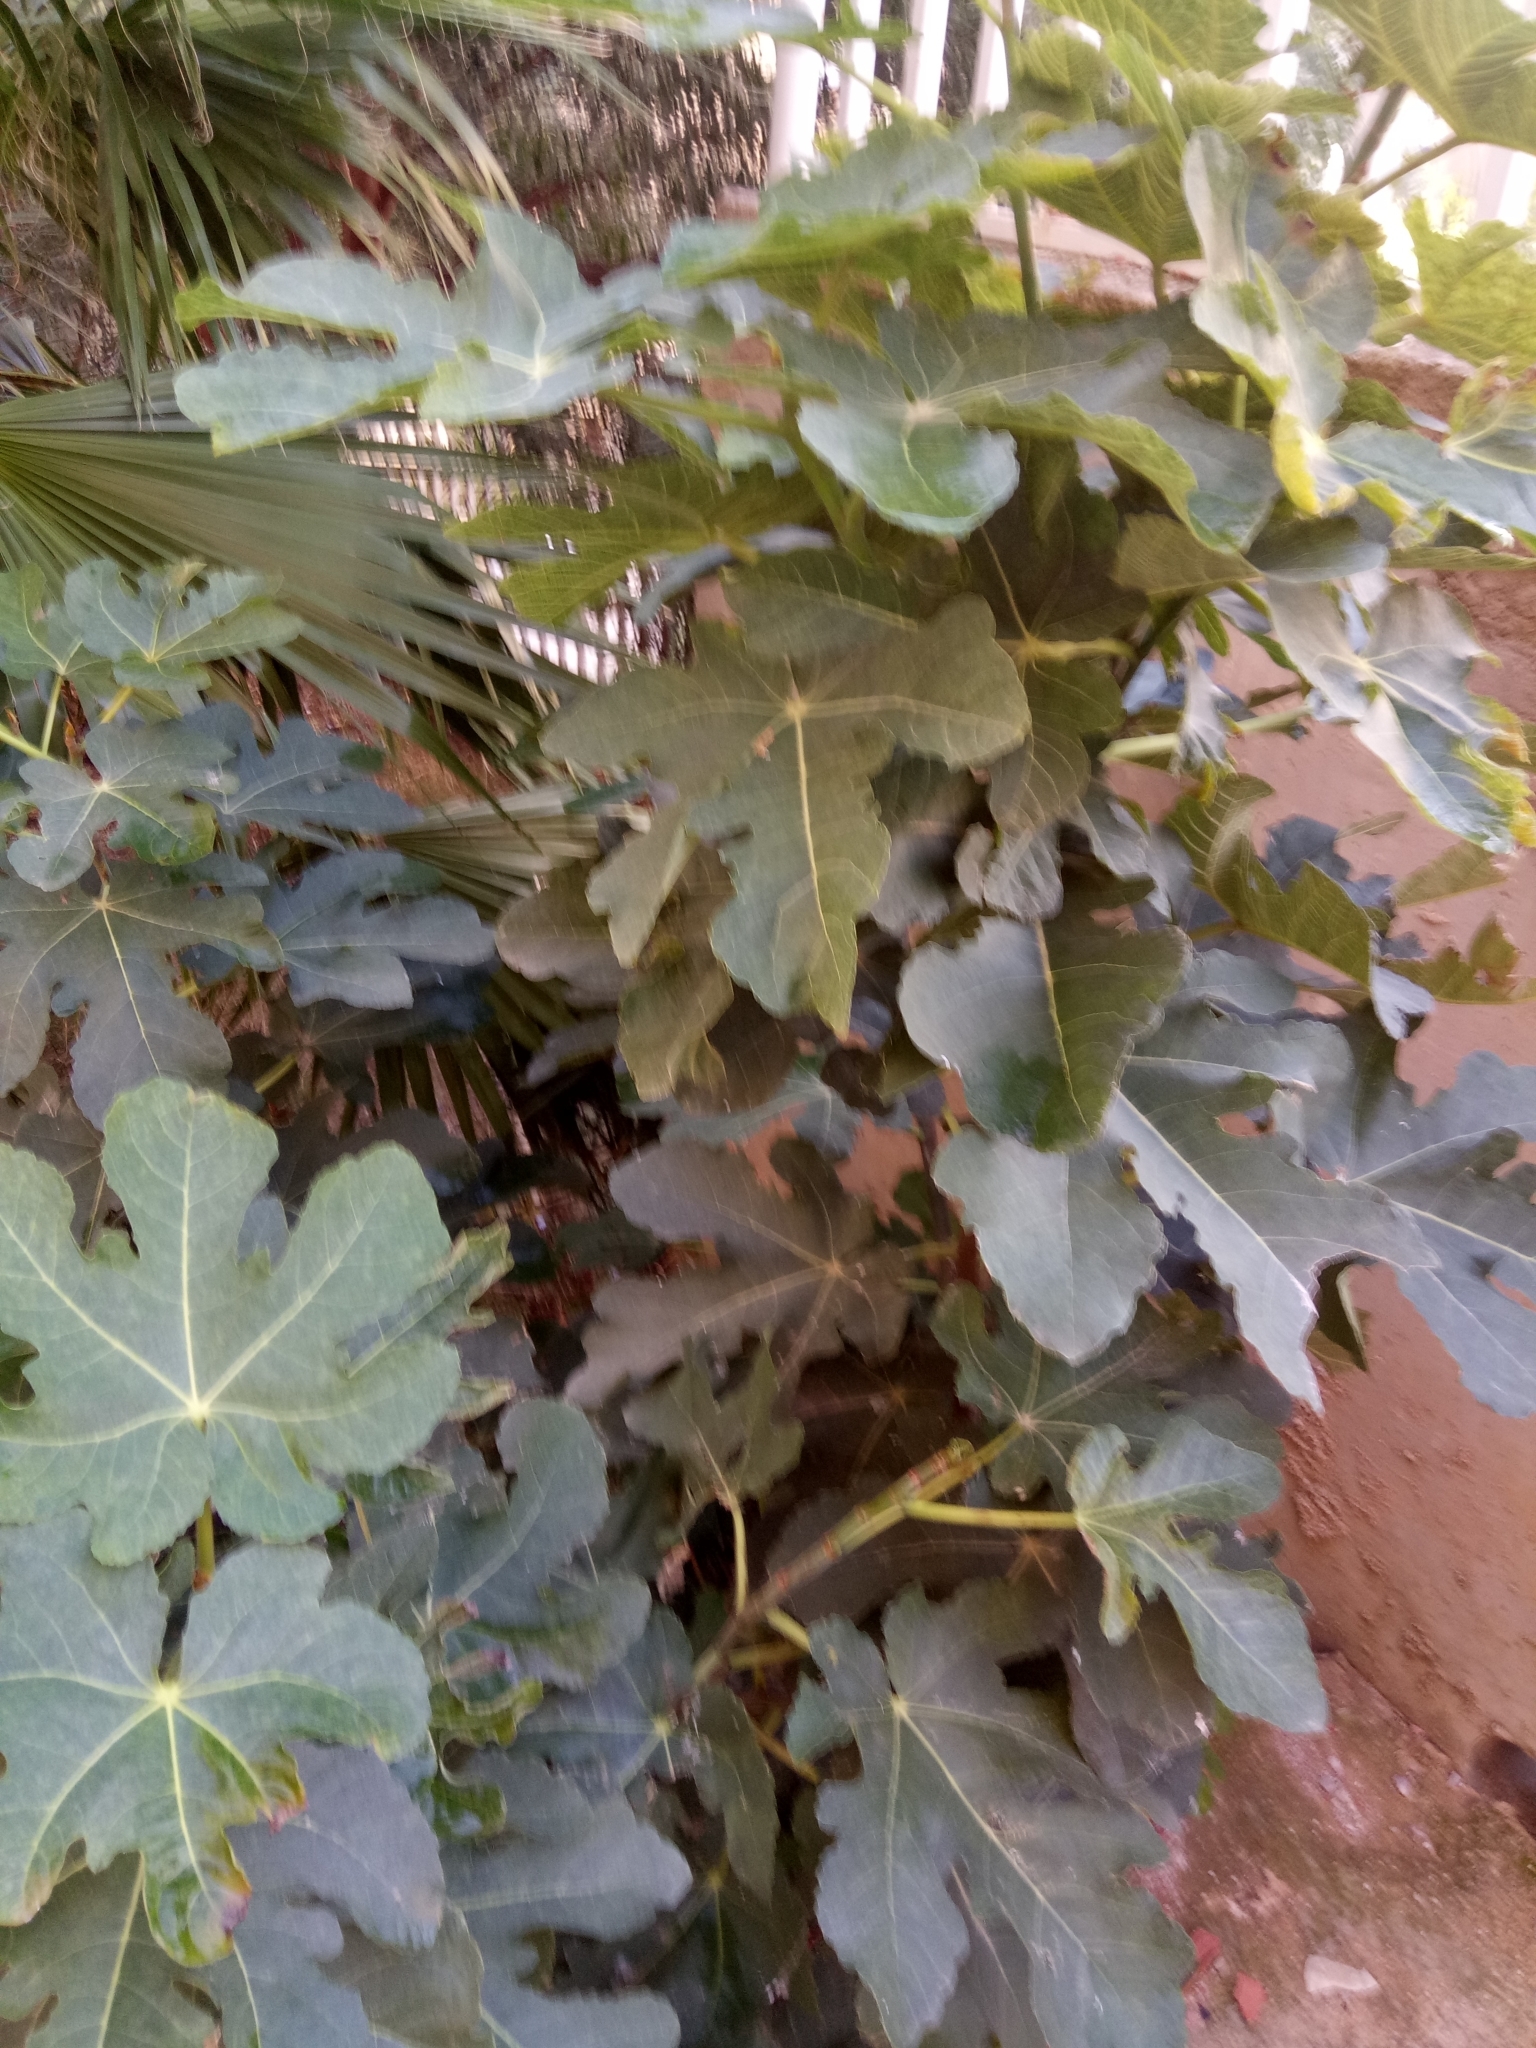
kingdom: Plantae
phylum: Tracheophyta
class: Magnoliopsida
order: Rosales
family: Moraceae
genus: Ficus
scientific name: Ficus carica
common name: Fig
